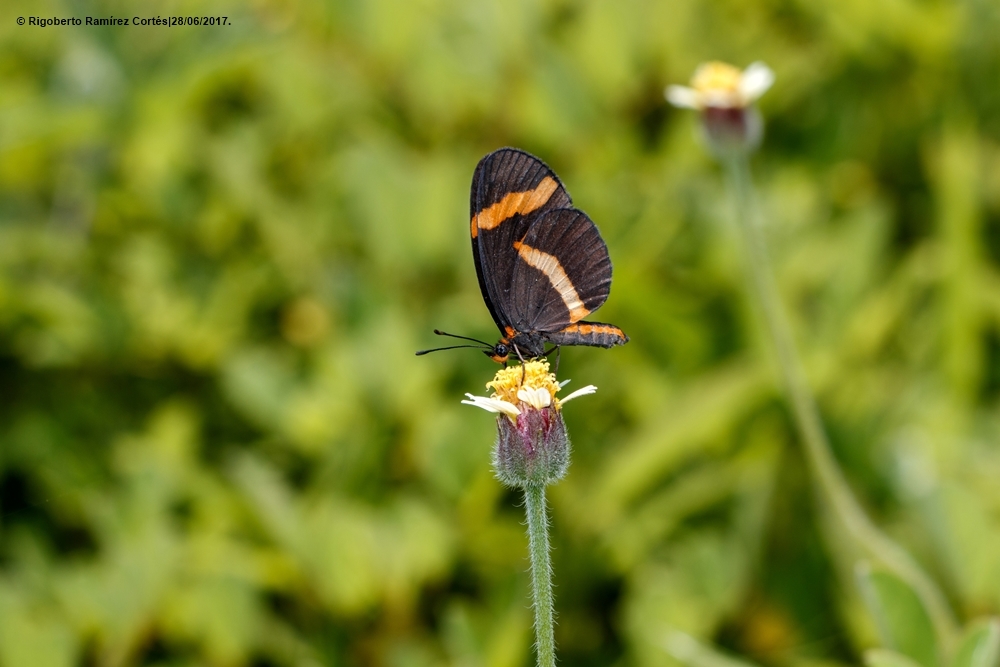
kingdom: Animalia
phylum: Arthropoda
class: Insecta
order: Lepidoptera
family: Nymphalidae
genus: Microtia
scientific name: Microtia elva
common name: Elf
